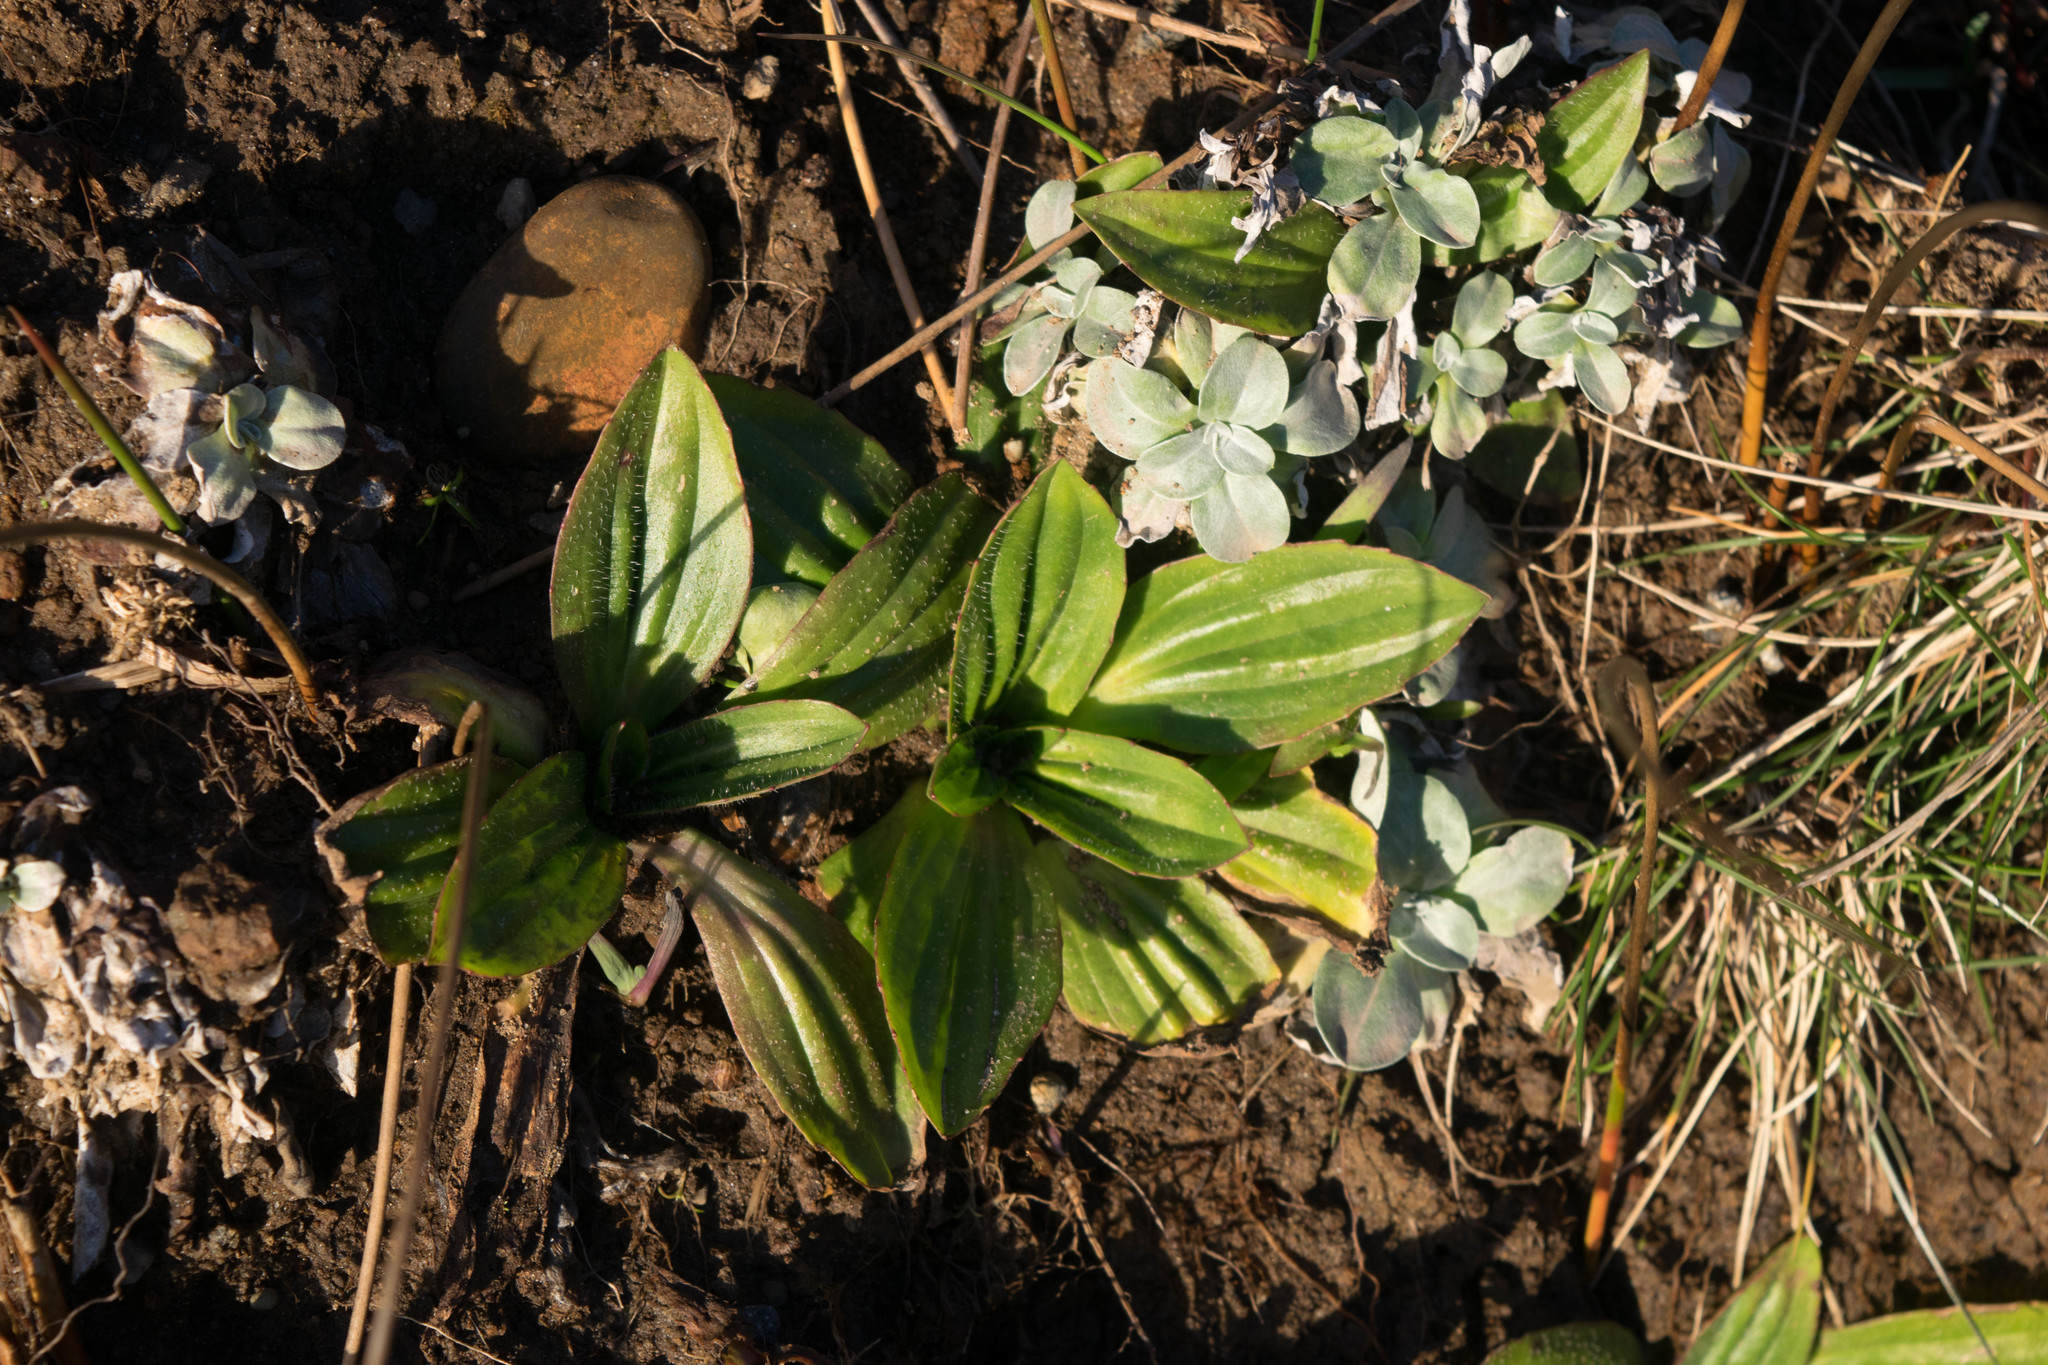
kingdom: Plantae
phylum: Tracheophyta
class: Magnoliopsida
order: Lamiales
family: Plantaginaceae
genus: Plantago
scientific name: Plantago subnuda
